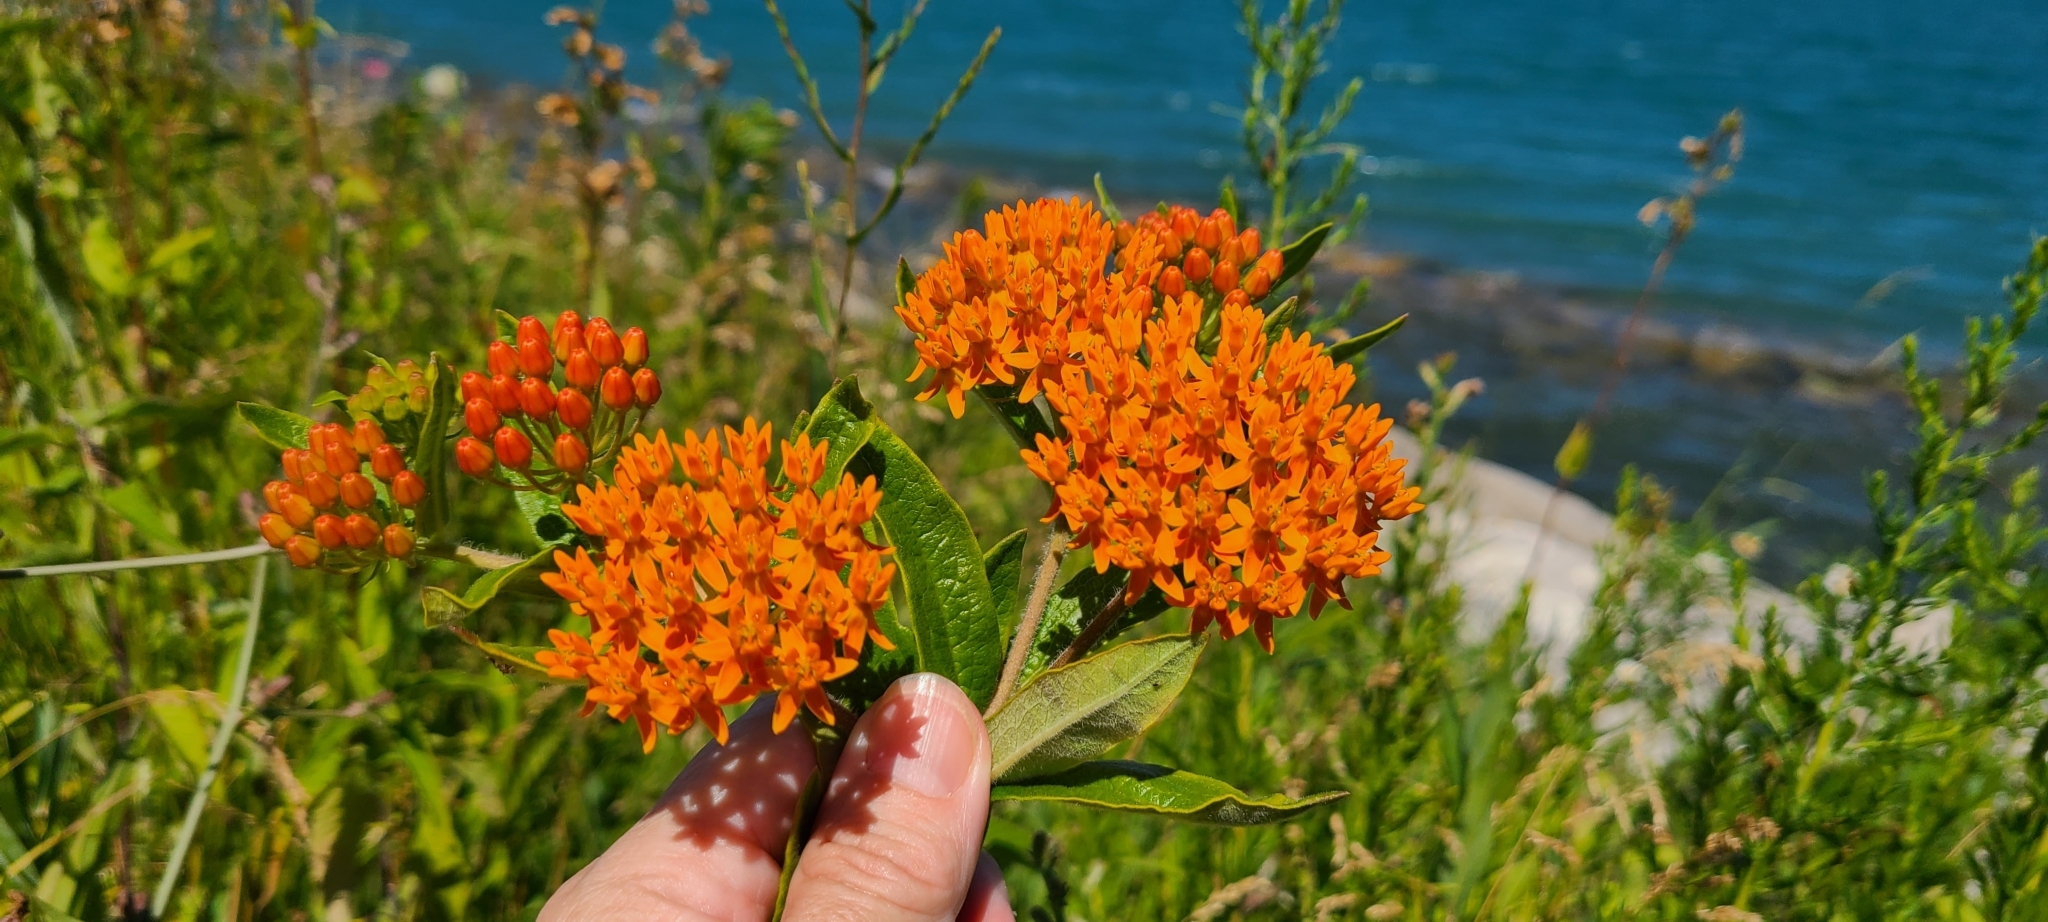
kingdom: Plantae
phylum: Tracheophyta
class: Magnoliopsida
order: Gentianales
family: Apocynaceae
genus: Asclepias
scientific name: Asclepias tuberosa
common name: Butterfly milkweed
